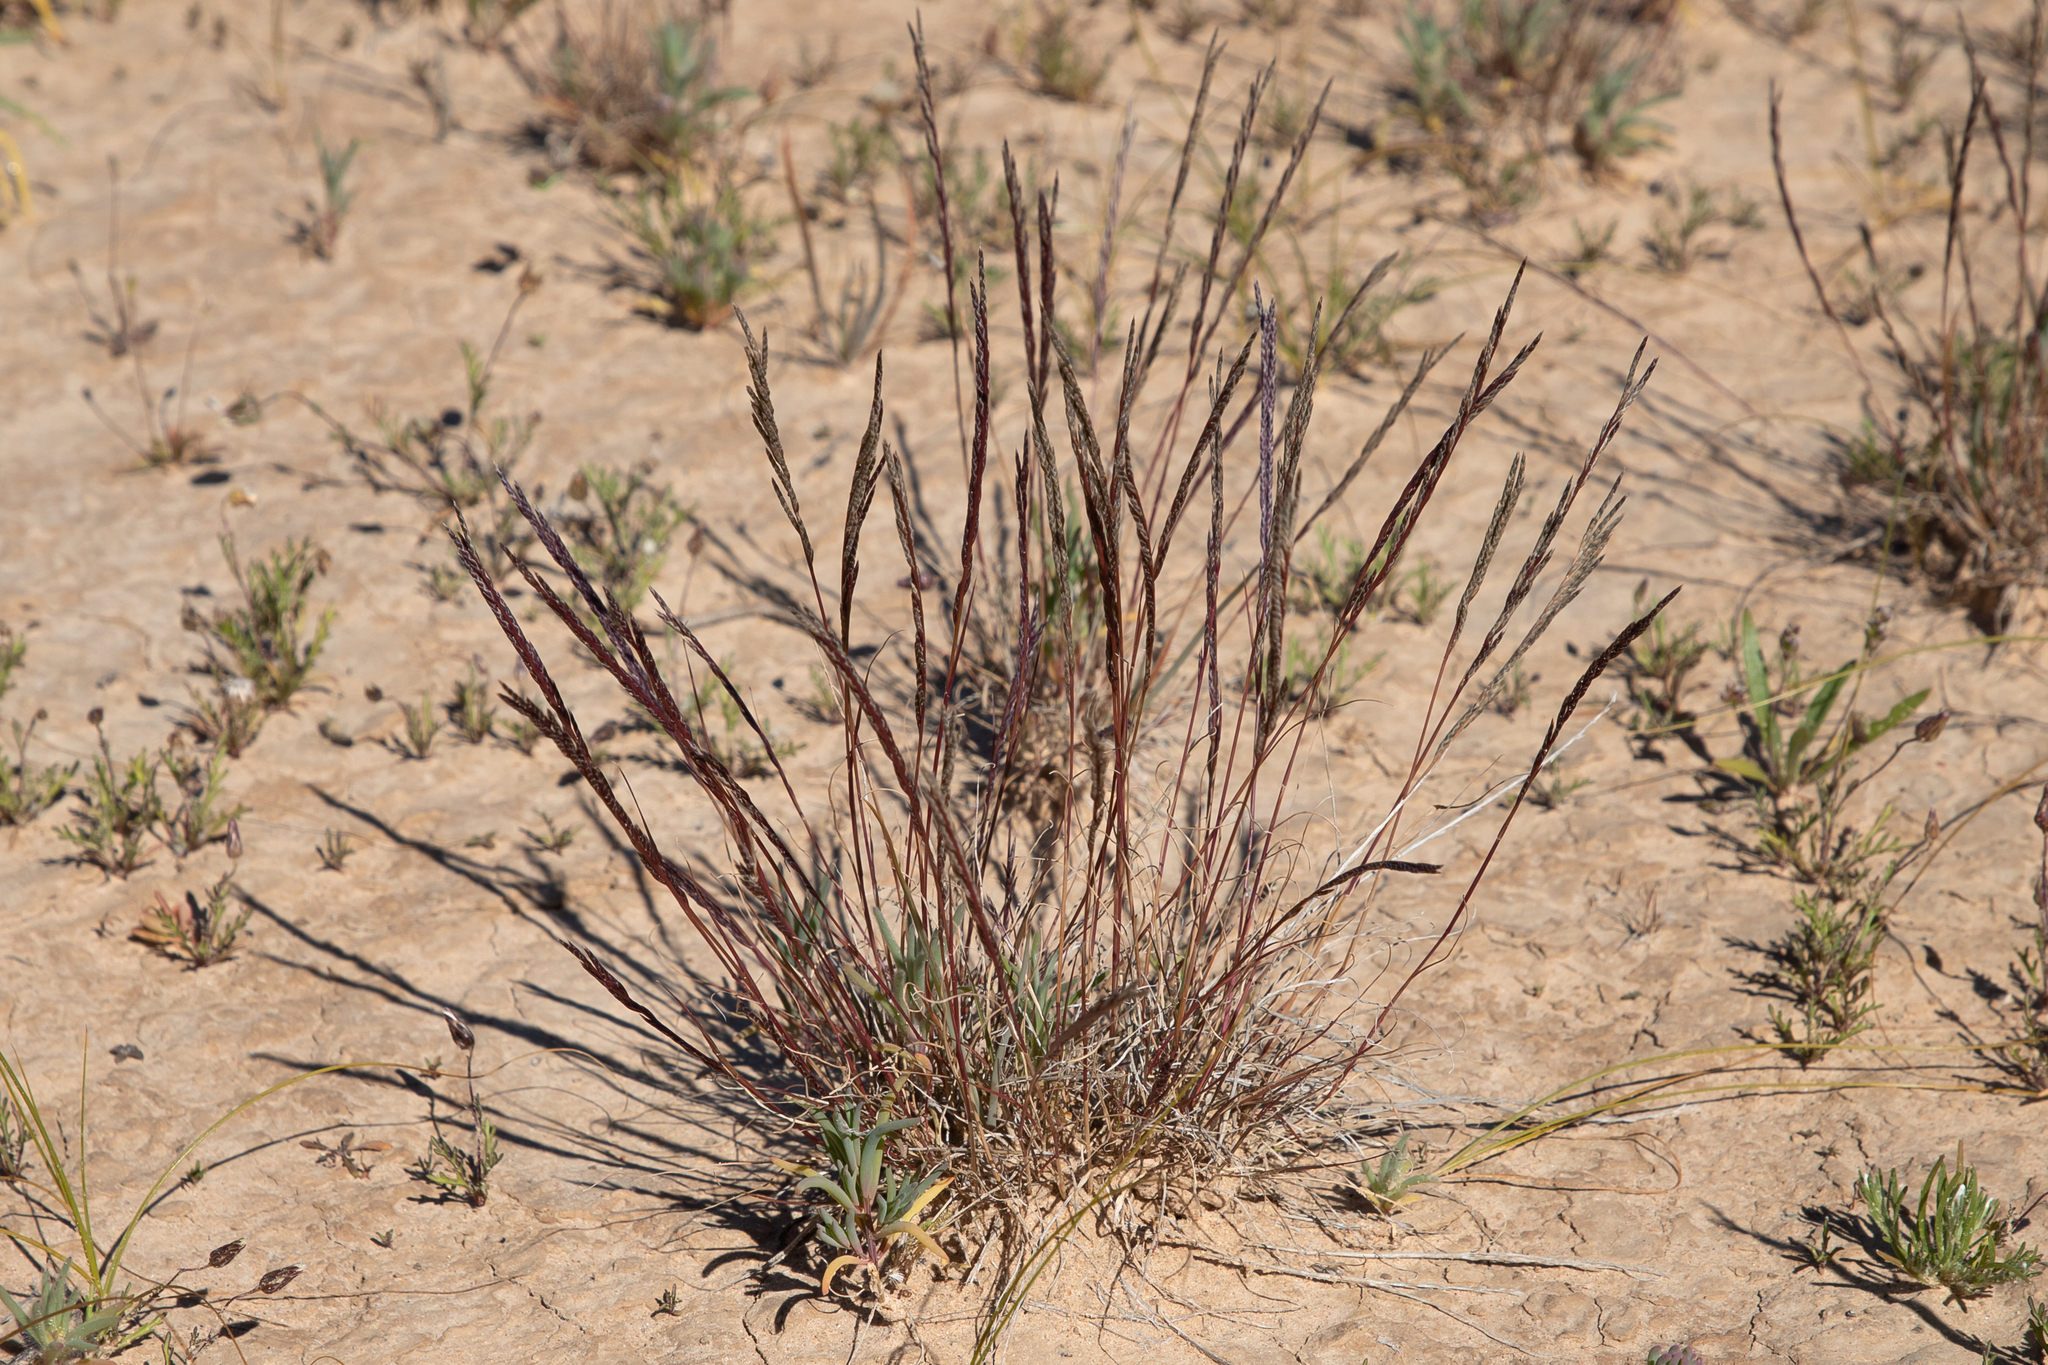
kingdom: Plantae
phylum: Tracheophyta
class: Liliopsida
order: Poales
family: Poaceae
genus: Tripogonella
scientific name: Tripogonella loliiformis
